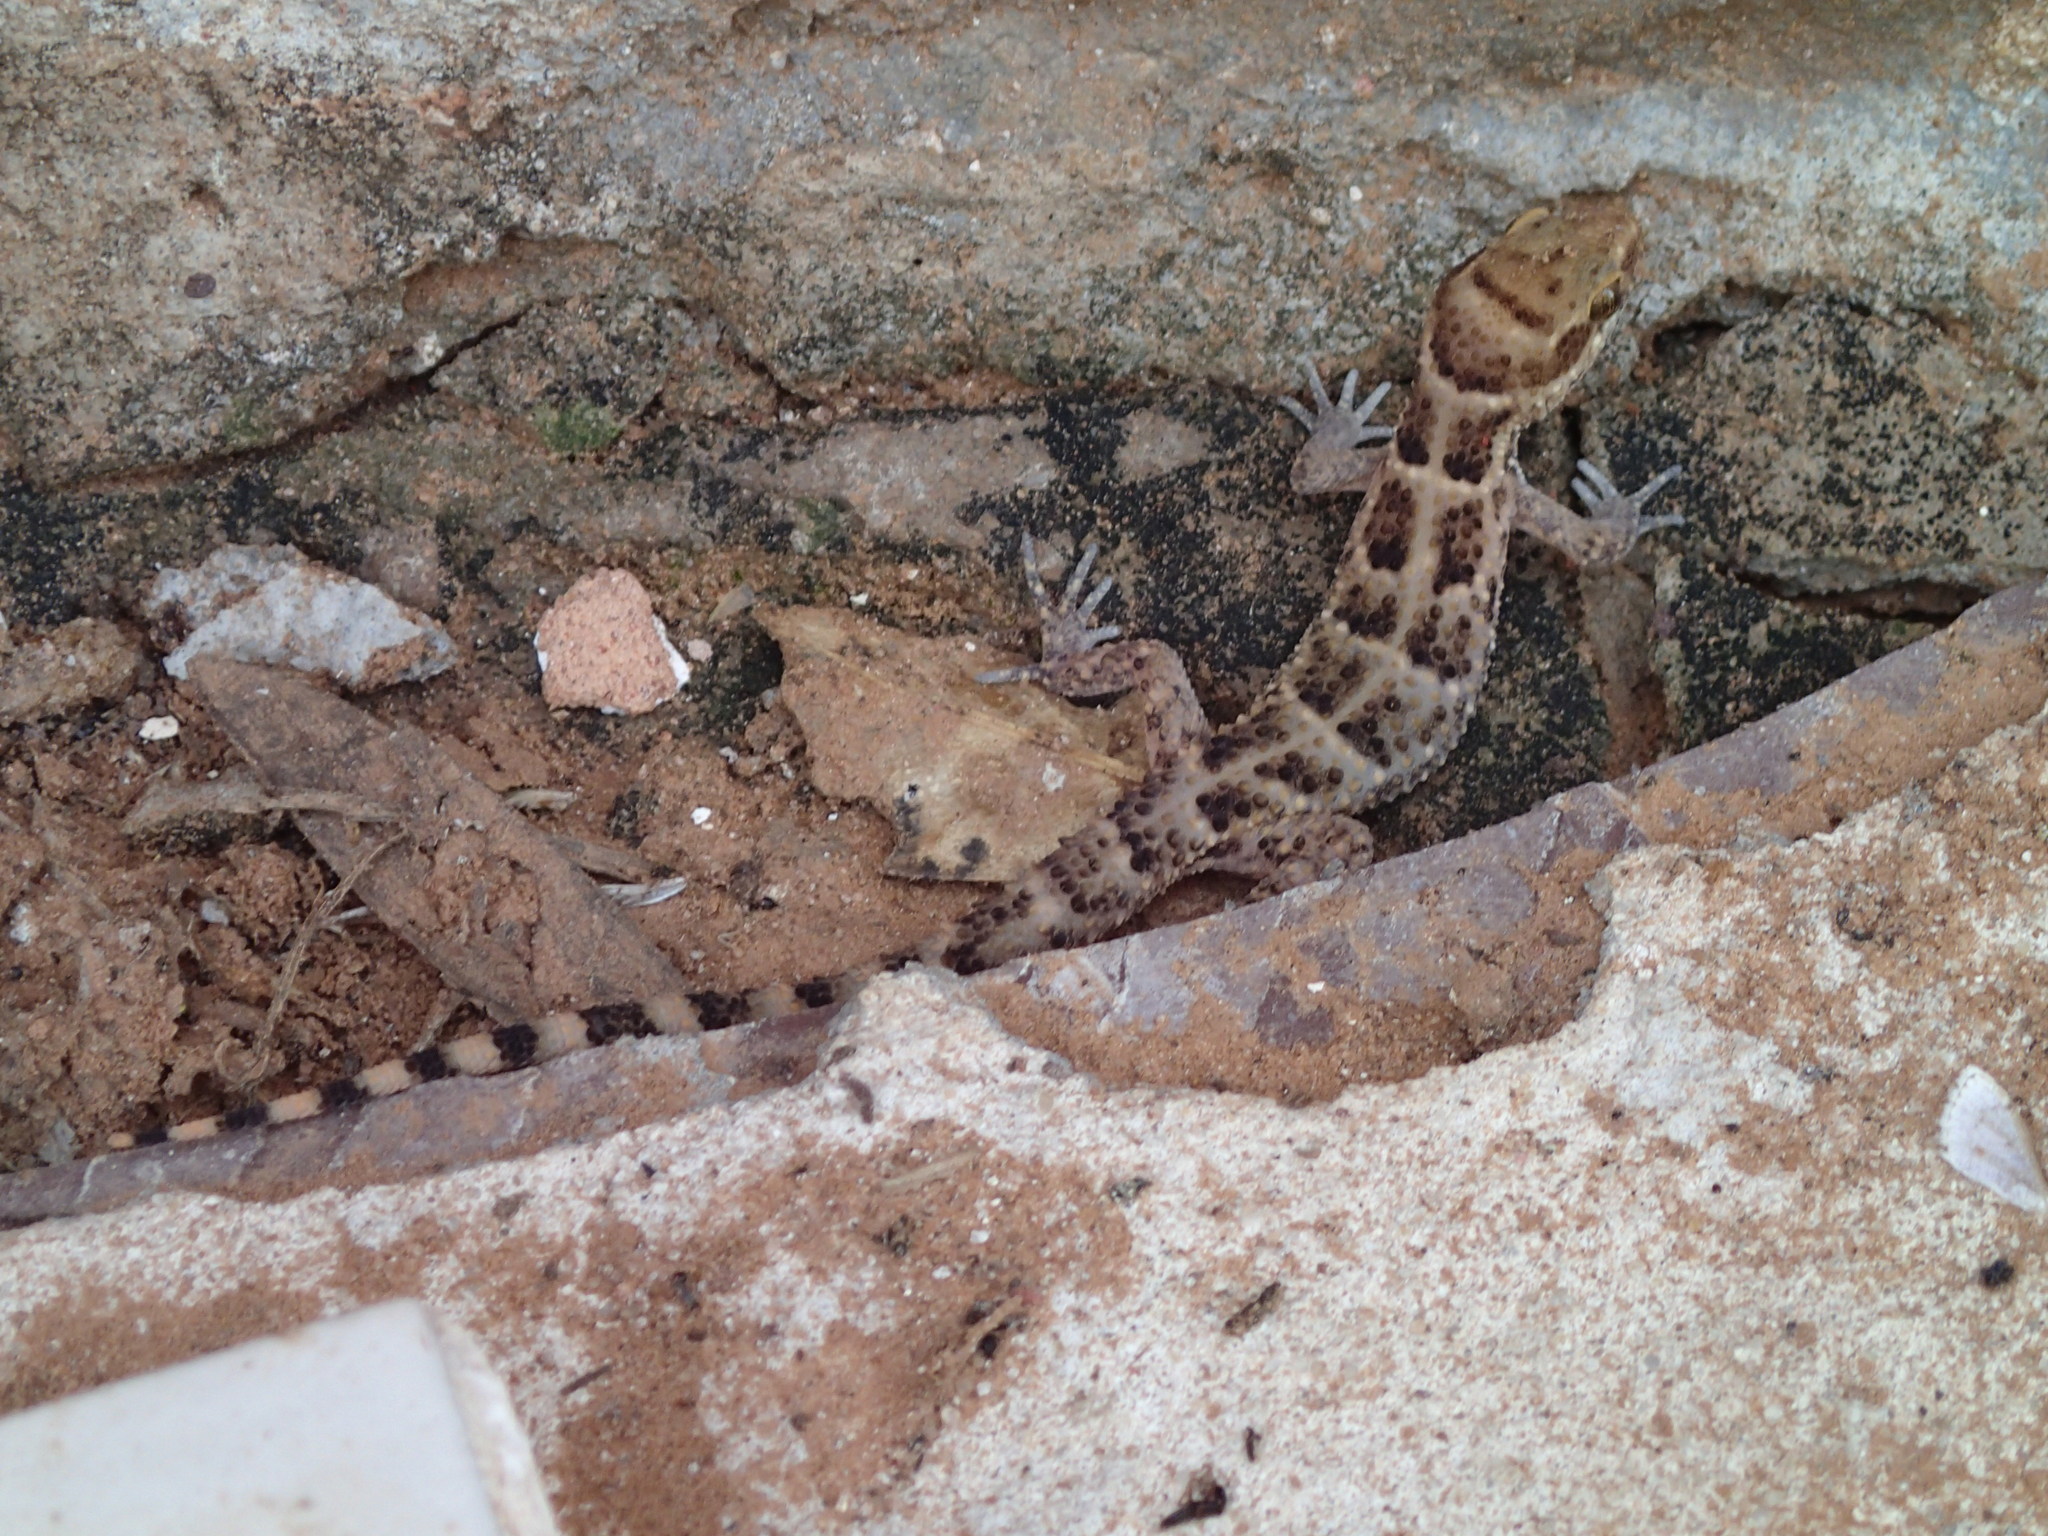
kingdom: Animalia
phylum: Chordata
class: Squamata
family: Phyllodactylidae
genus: Homonota
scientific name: Homonota septentrionalis
